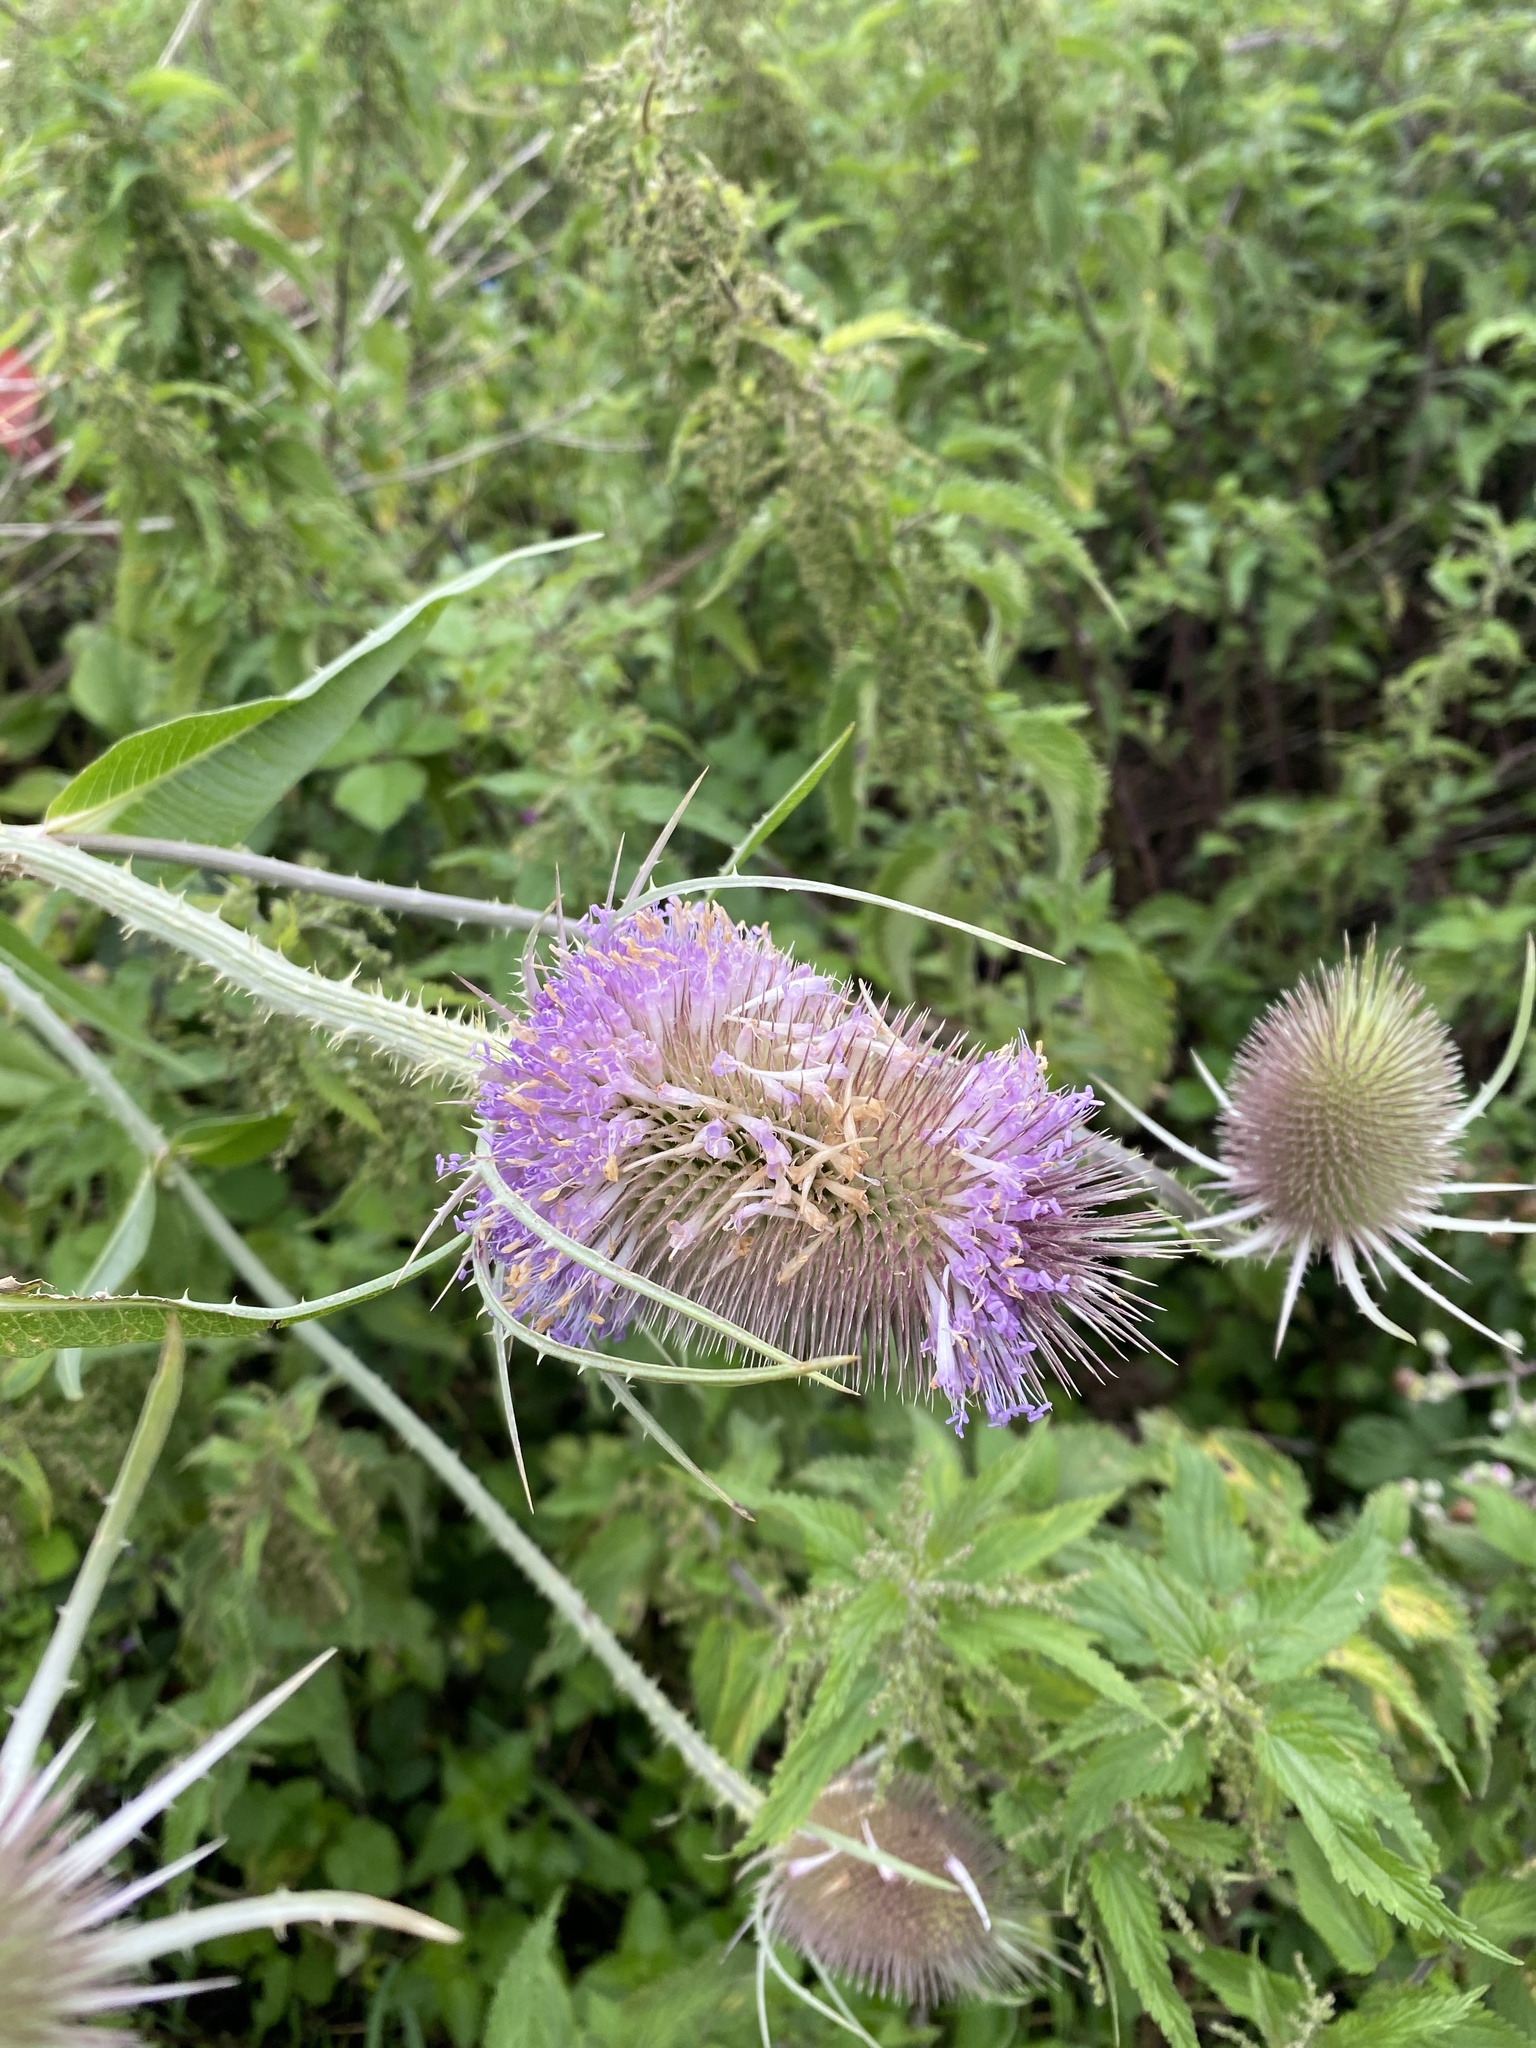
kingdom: Plantae
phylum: Tracheophyta
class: Magnoliopsida
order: Dipsacales
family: Caprifoliaceae
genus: Dipsacus
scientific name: Dipsacus fullonum
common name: Teasel
